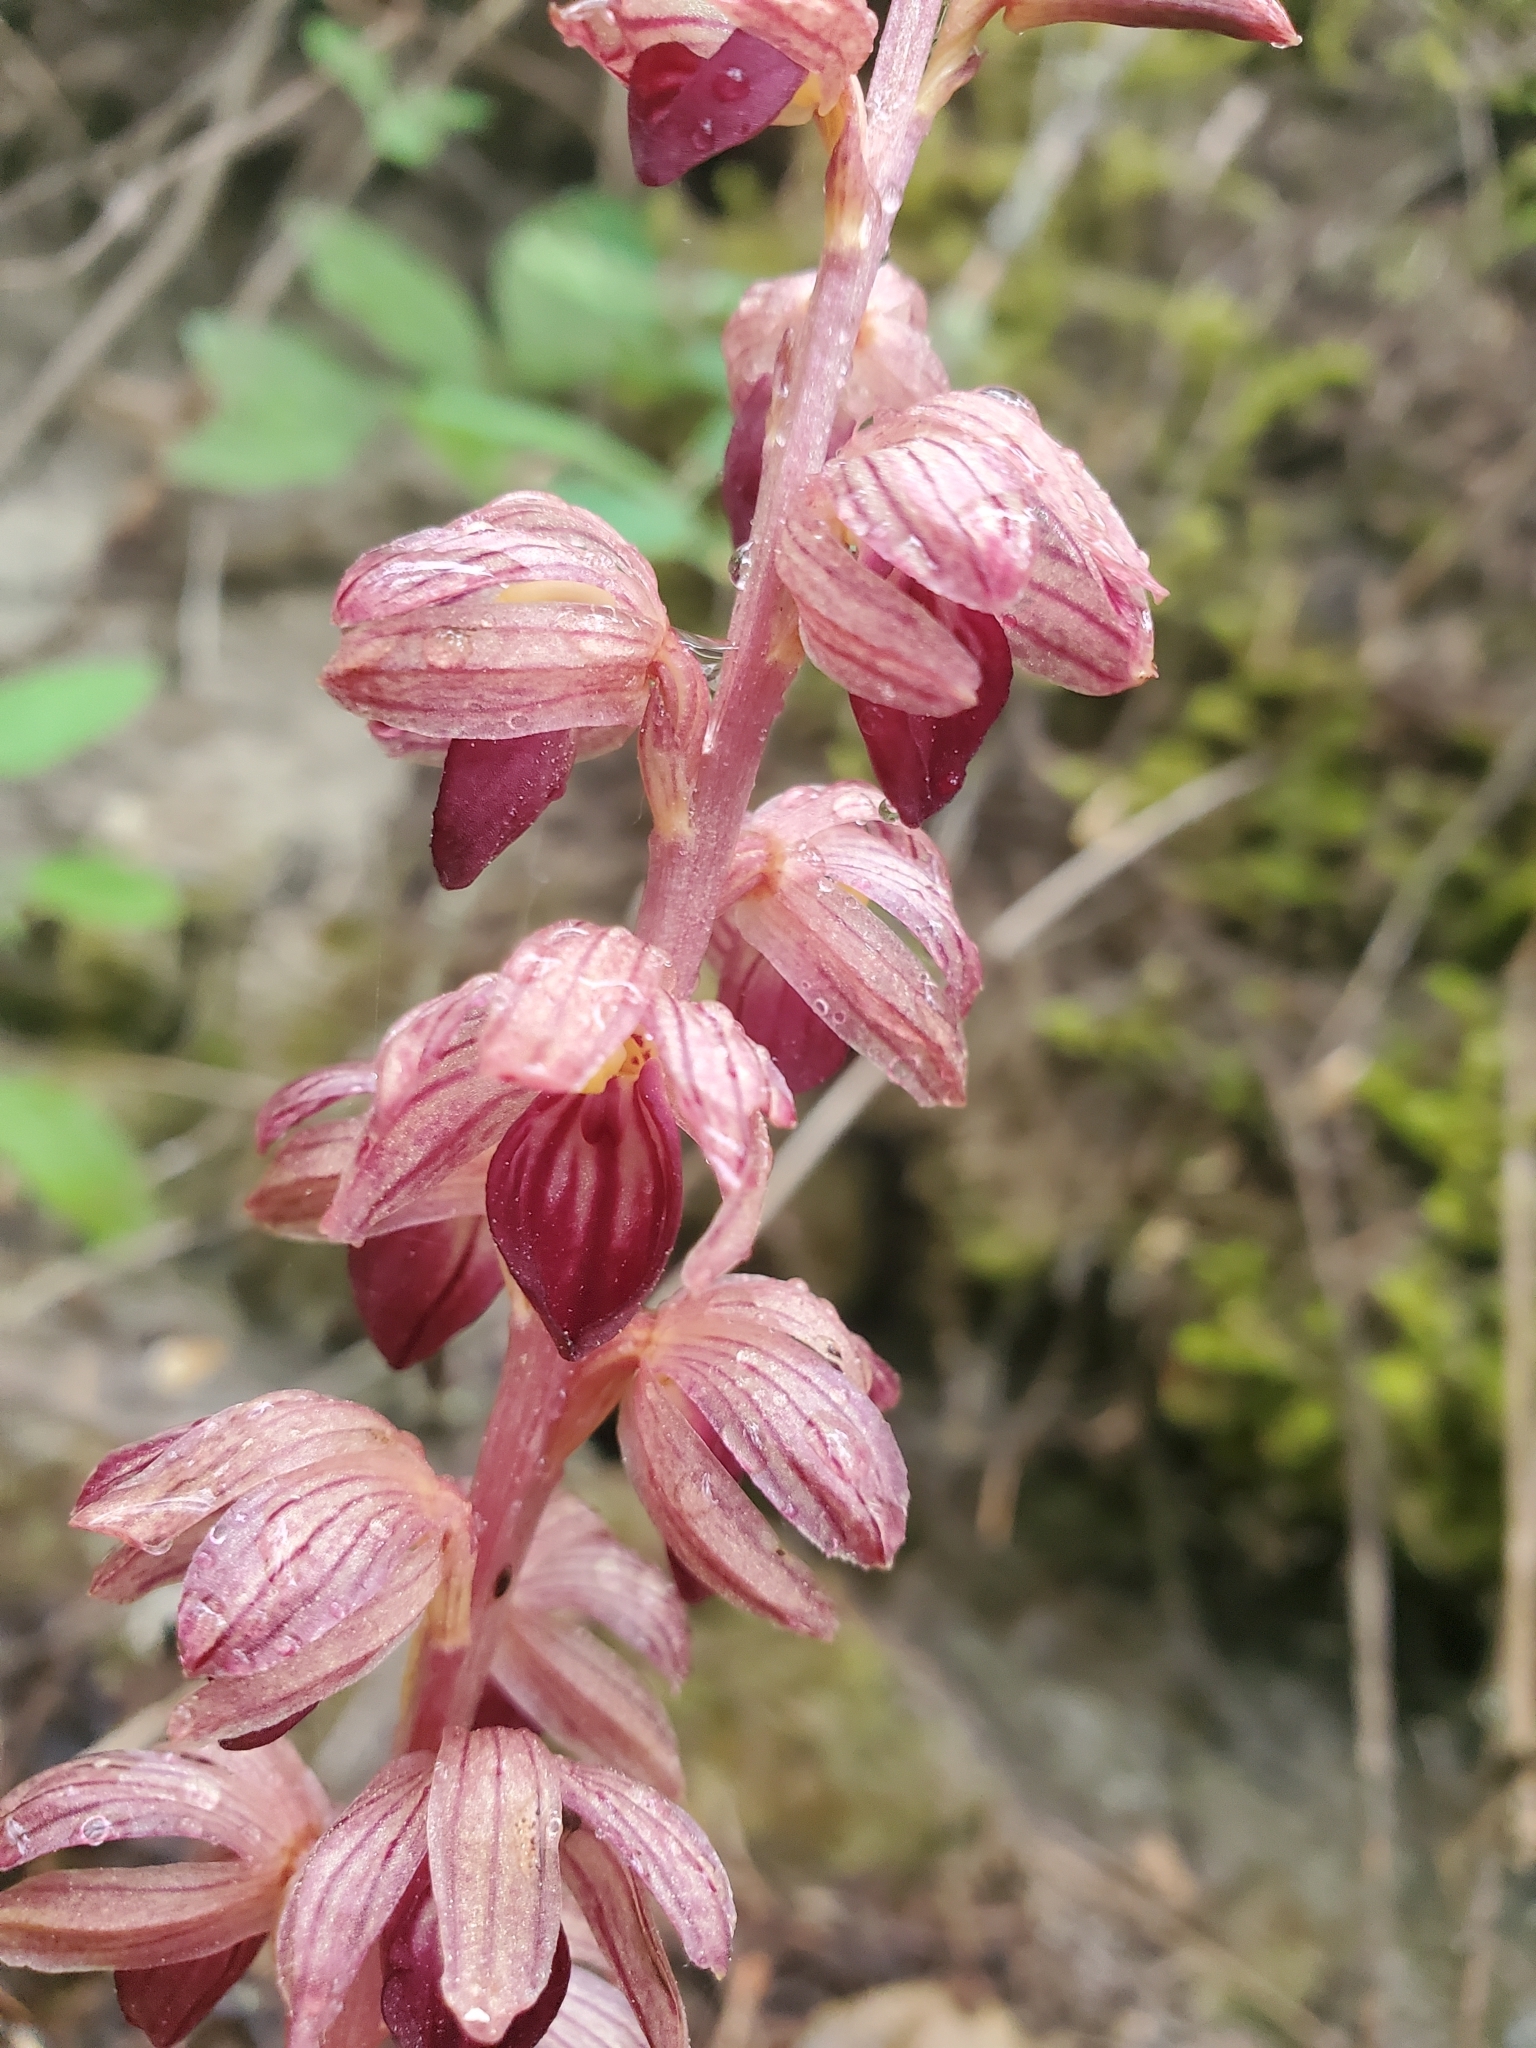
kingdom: Plantae
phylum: Tracheophyta
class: Liliopsida
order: Asparagales
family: Orchidaceae
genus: Corallorhiza
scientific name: Corallorhiza striata
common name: Hooded coralroot
